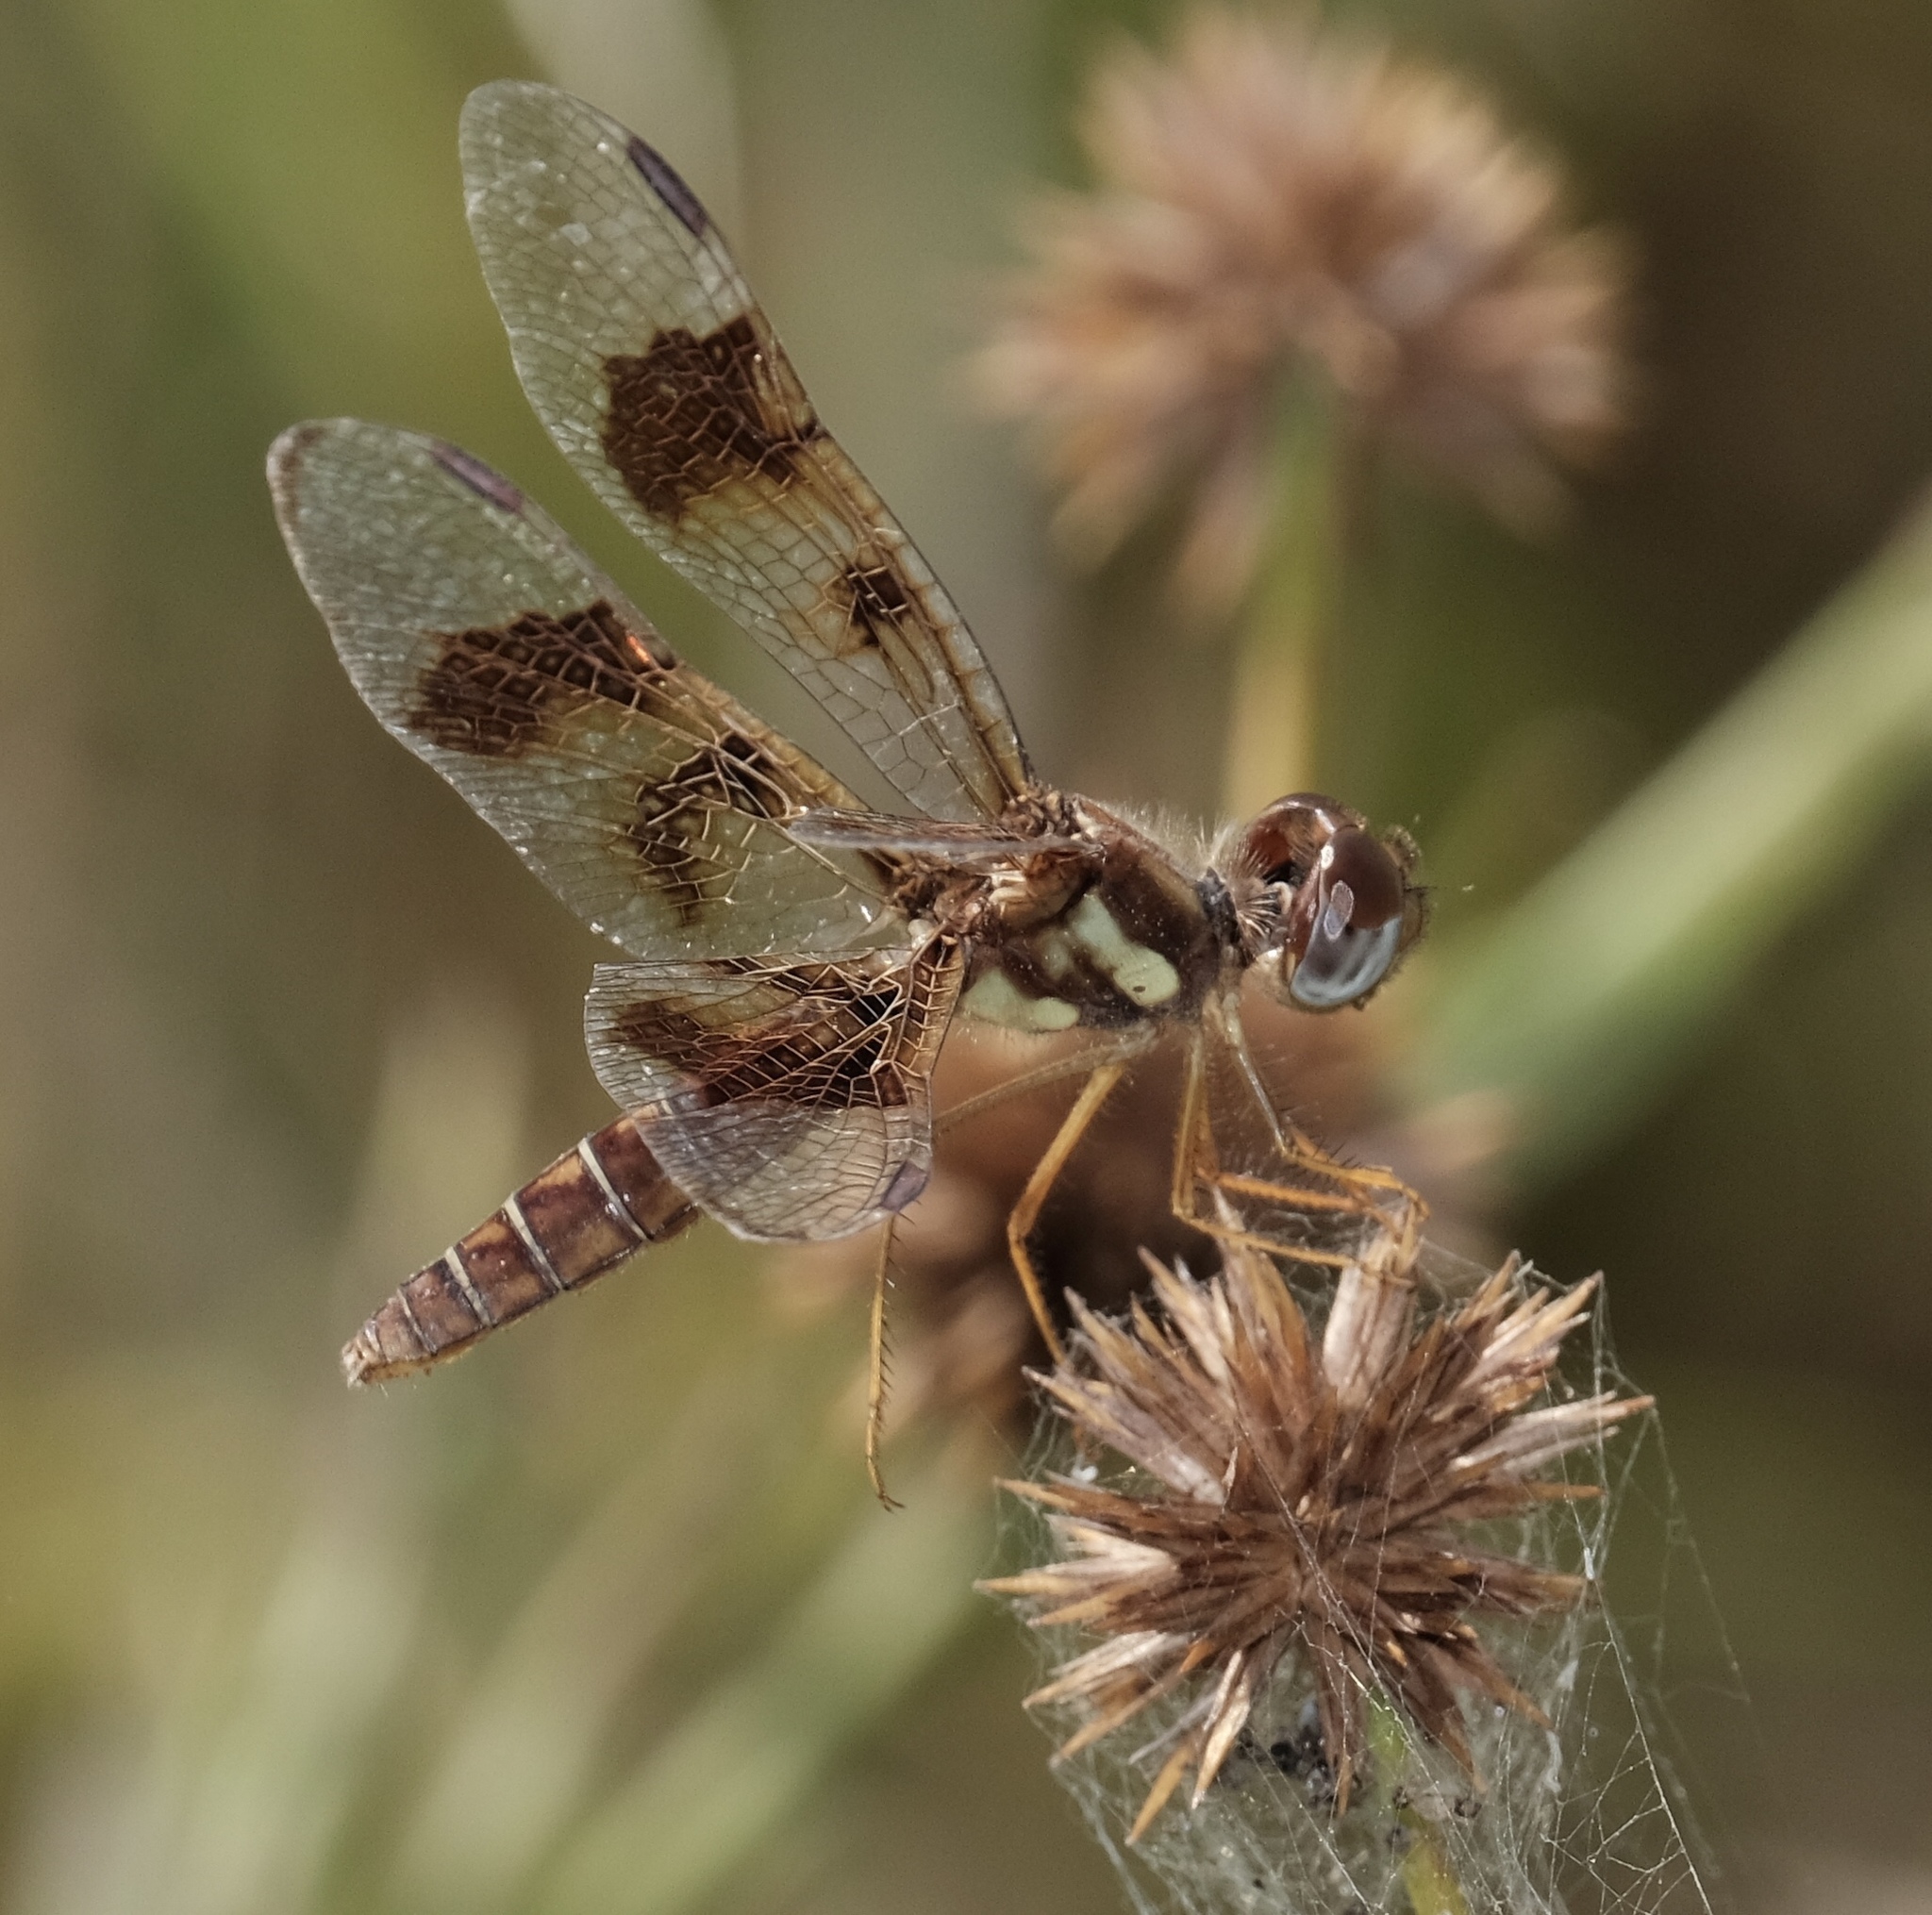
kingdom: Animalia
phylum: Arthropoda
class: Insecta
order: Odonata
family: Libellulidae
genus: Perithemis
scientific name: Perithemis tenera
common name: Eastern amberwing
